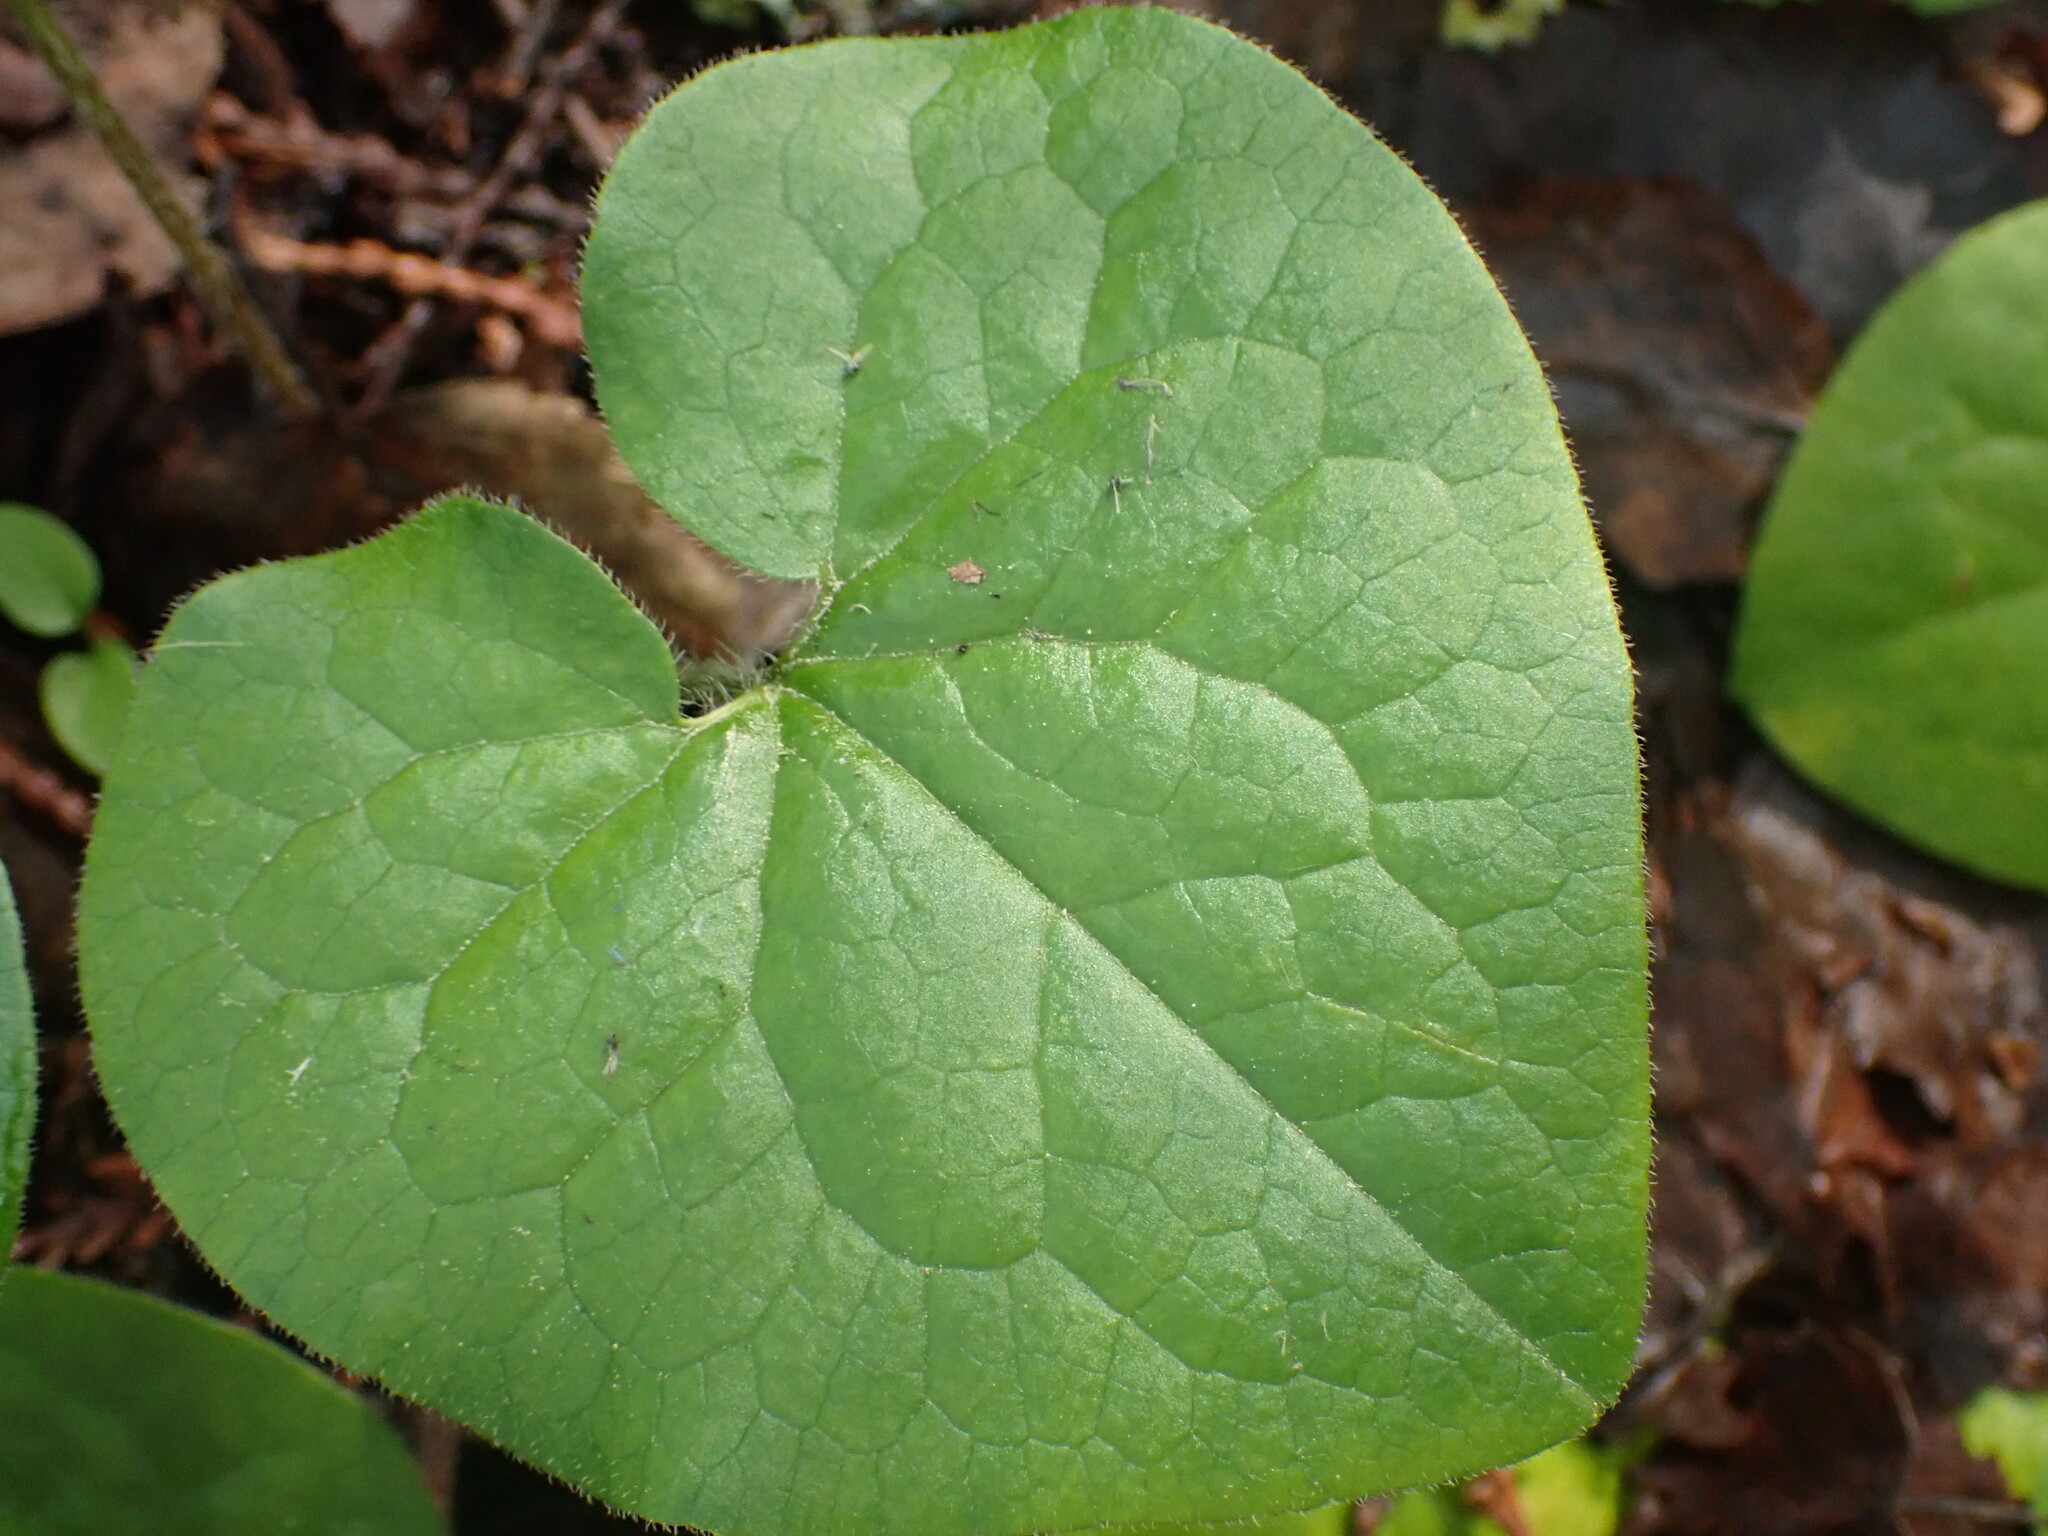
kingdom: Plantae
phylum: Tracheophyta
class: Magnoliopsida
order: Piperales
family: Aristolochiaceae
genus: Asarum
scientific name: Asarum caudatum
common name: Wild ginger
